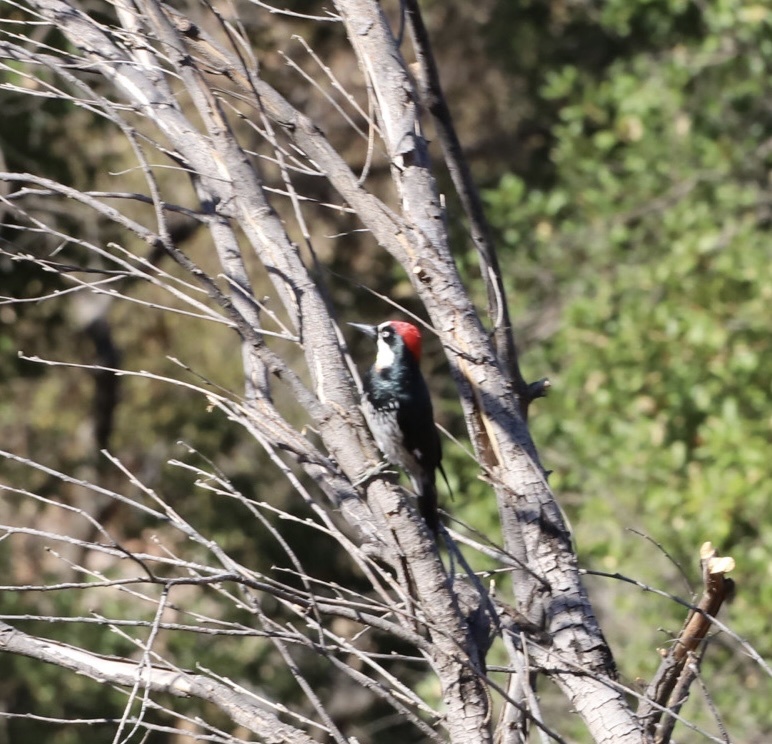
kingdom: Animalia
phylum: Chordata
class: Aves
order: Piciformes
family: Picidae
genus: Melanerpes
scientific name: Melanerpes formicivorus
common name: Acorn woodpecker
